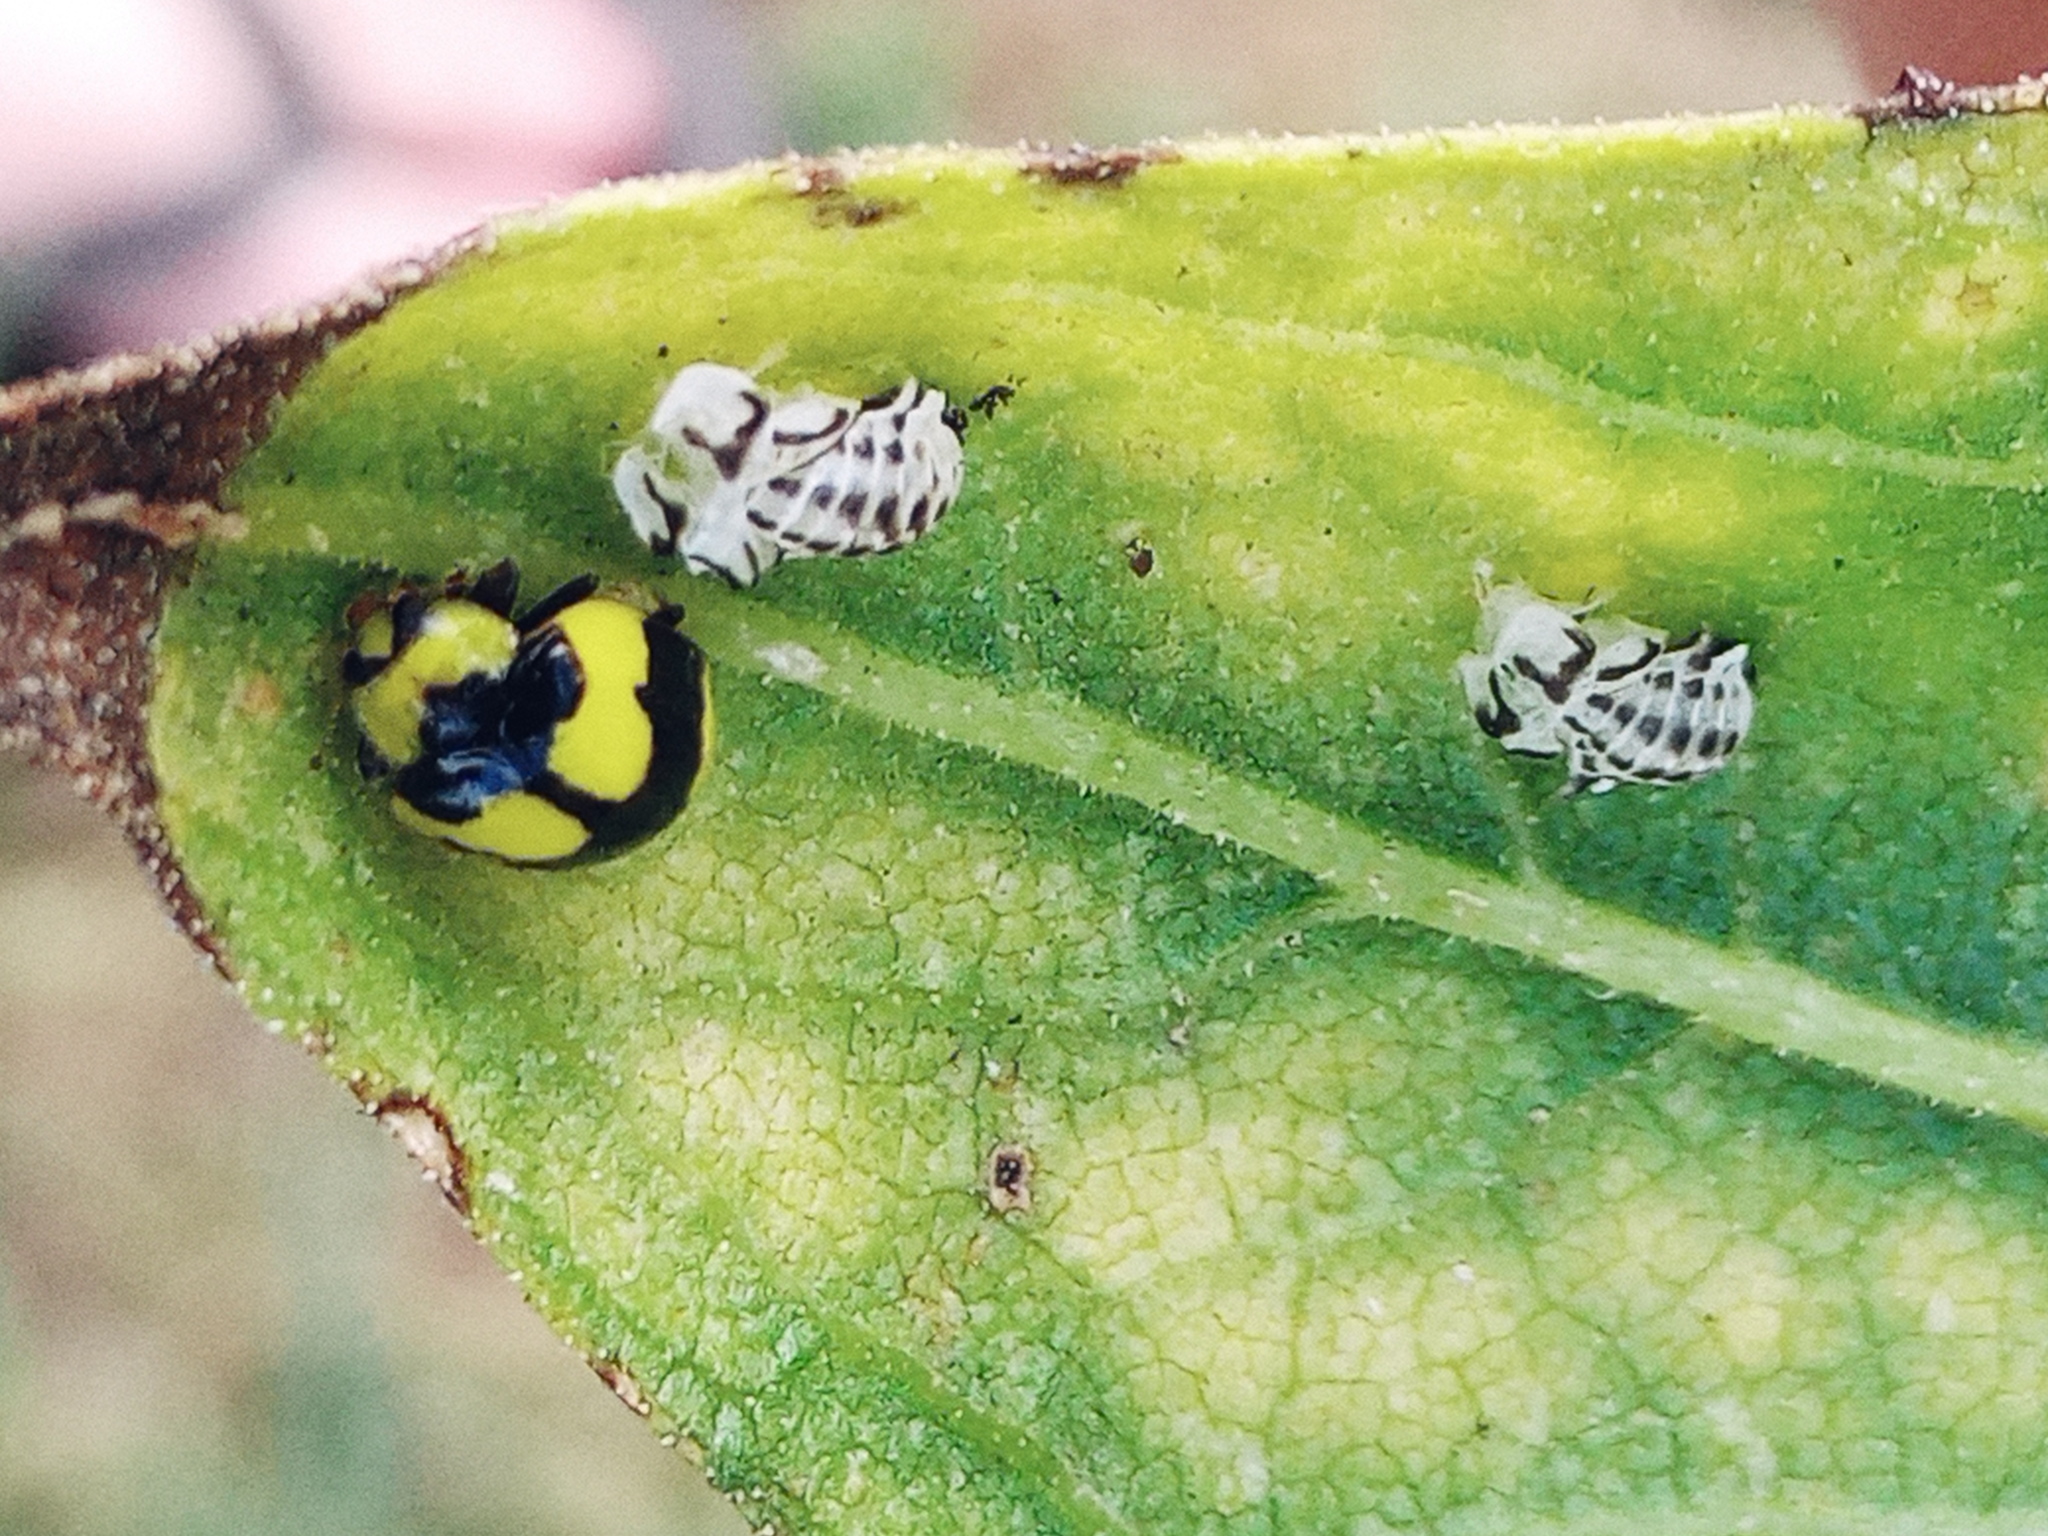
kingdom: Animalia
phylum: Arthropoda
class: Insecta
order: Coleoptera
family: Coccinellidae
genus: Illeis
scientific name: Illeis galbula
